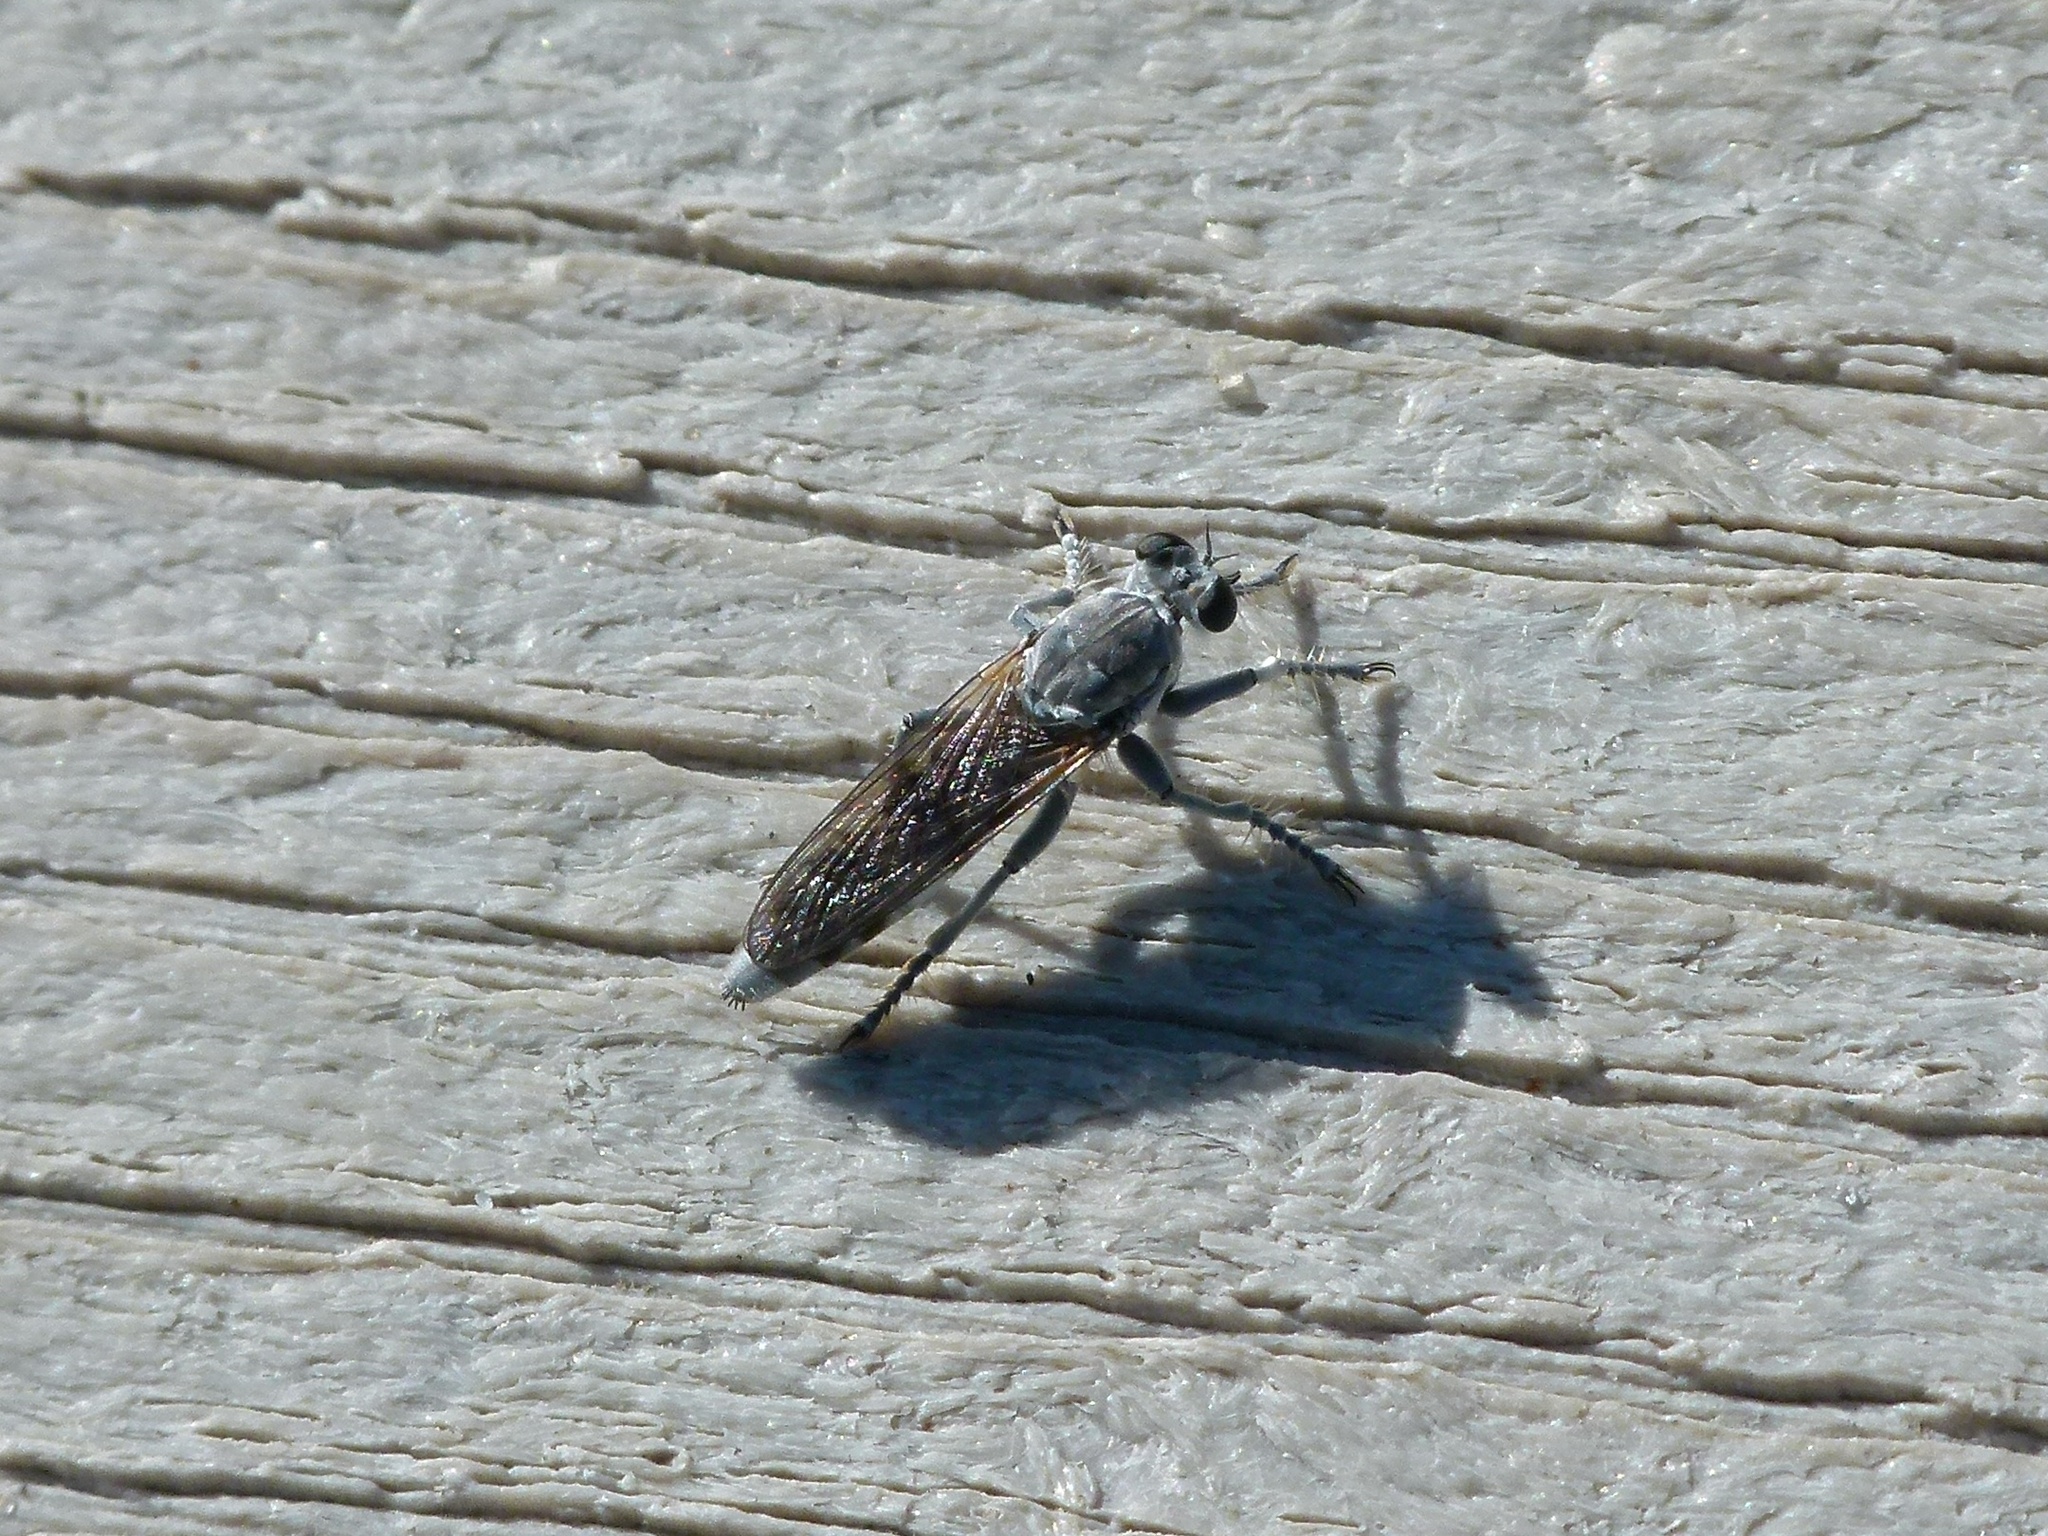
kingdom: Animalia
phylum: Arthropoda
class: Insecta
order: Diptera
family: Asilidae
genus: Stichopogon
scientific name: Stichopogon trifasciatus
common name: Three-banded robber fly
